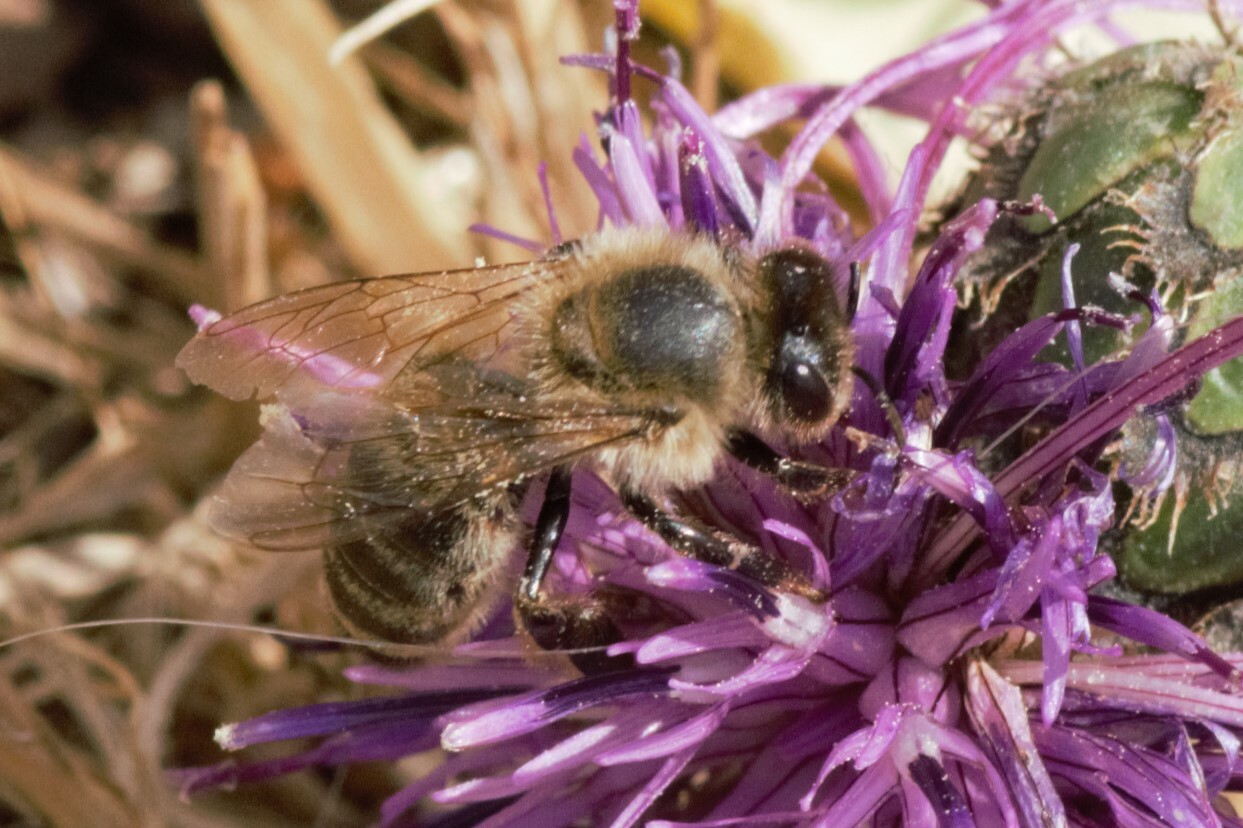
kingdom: Animalia
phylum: Arthropoda
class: Insecta
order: Hymenoptera
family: Apidae
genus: Apis
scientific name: Apis mellifera
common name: Honey bee
